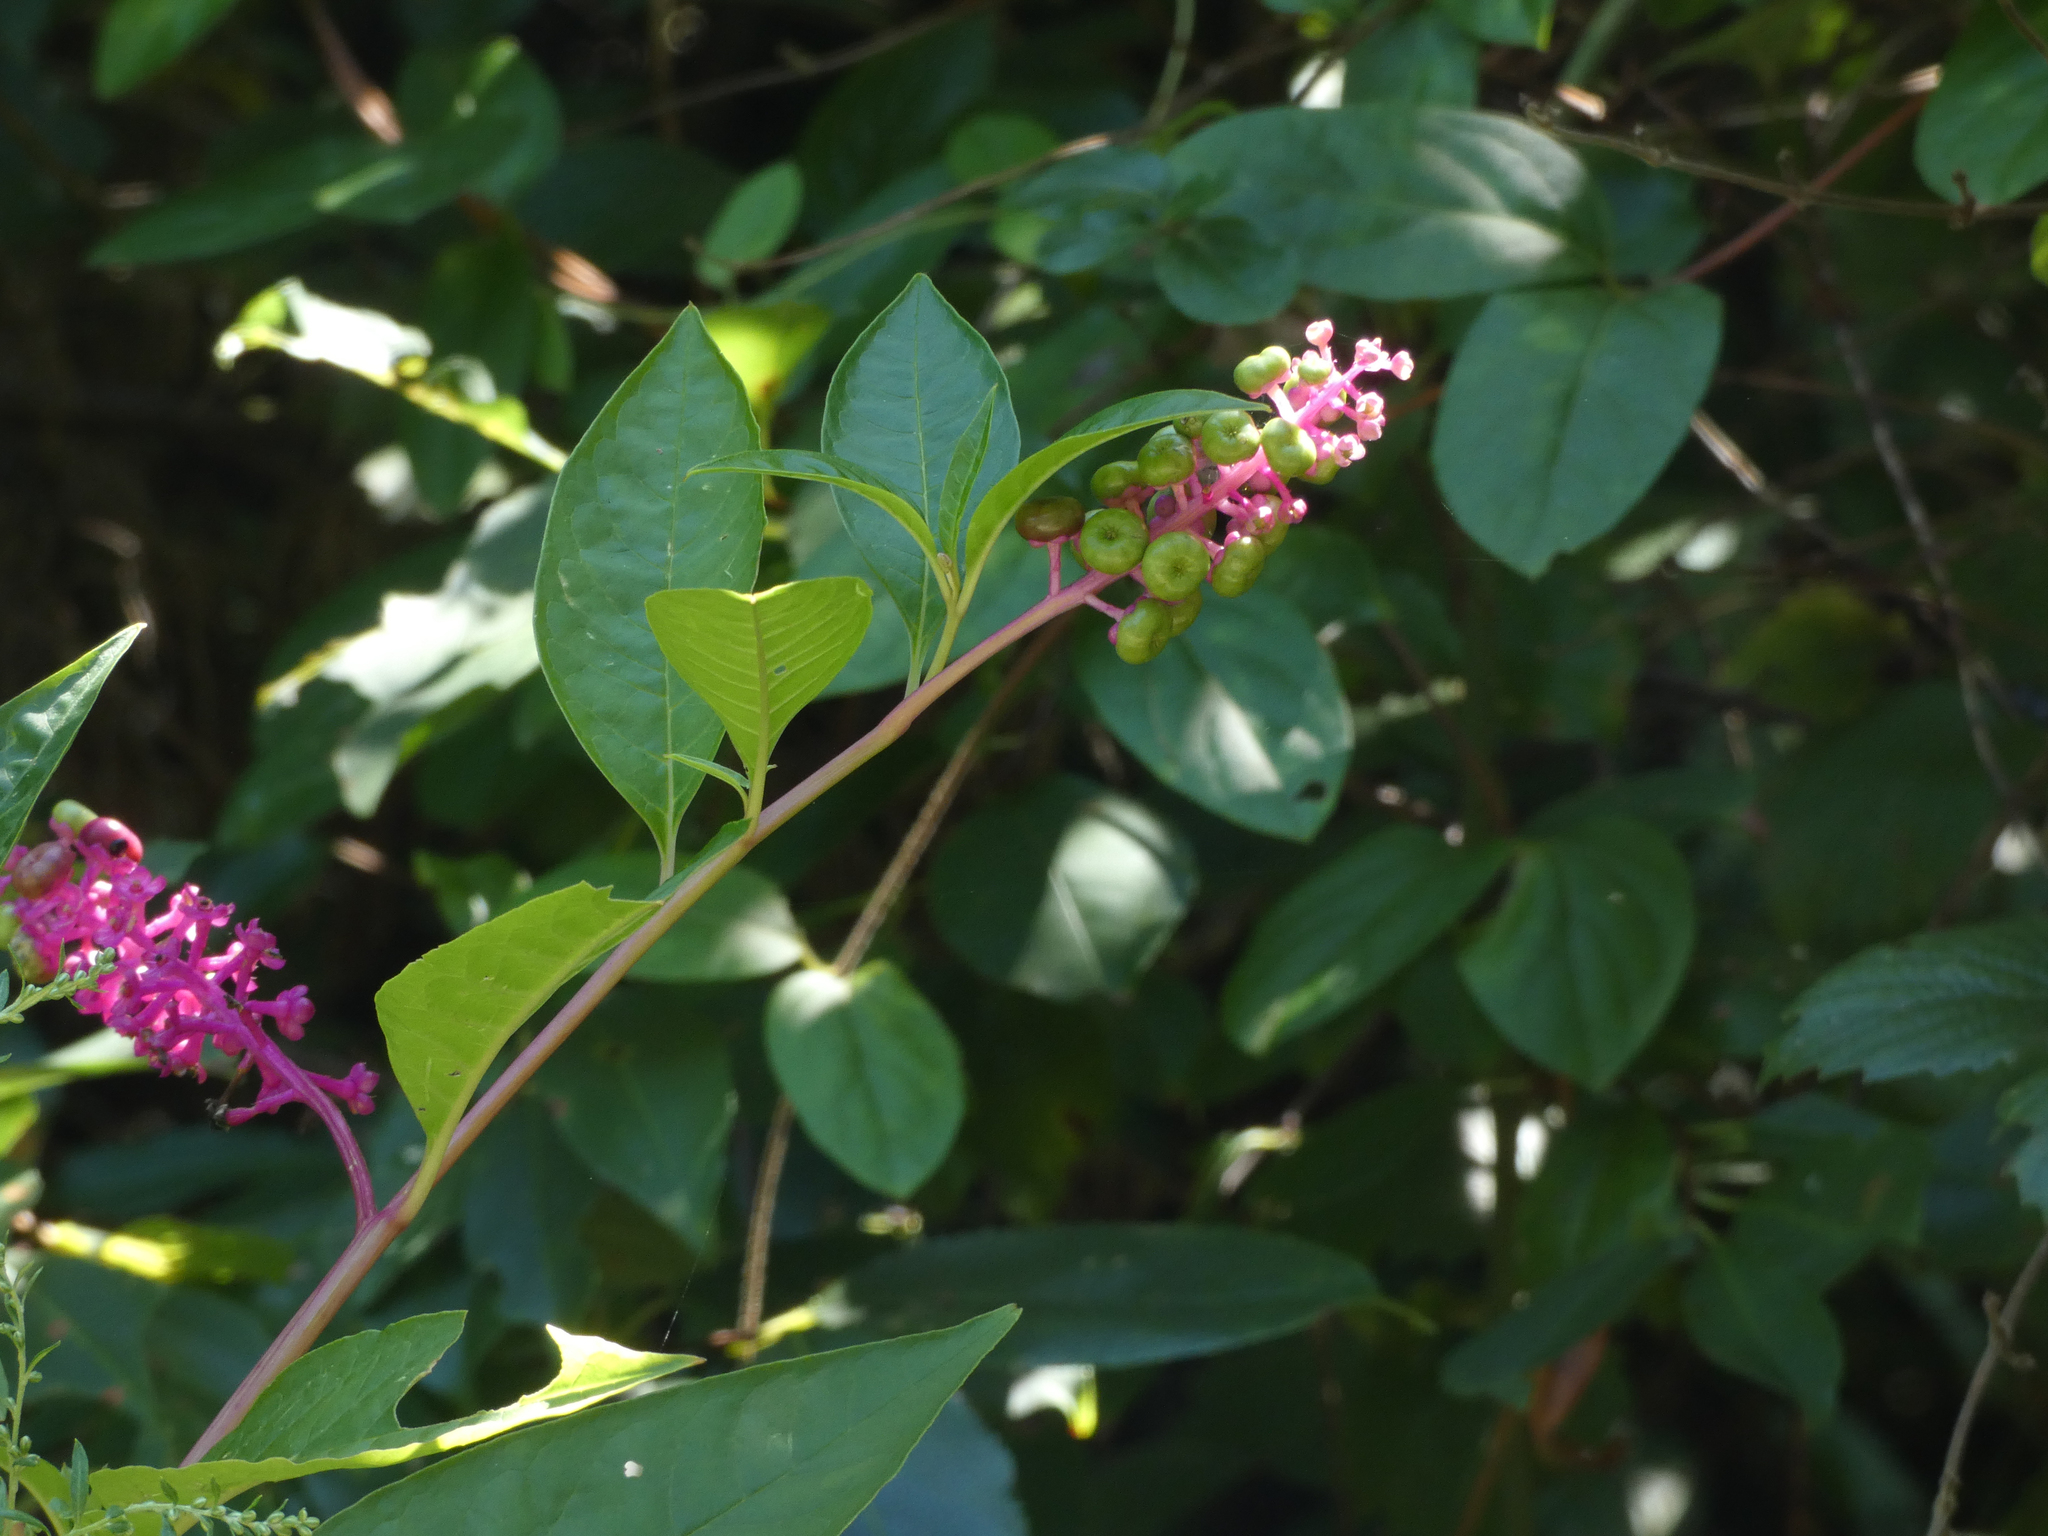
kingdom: Plantae
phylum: Tracheophyta
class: Magnoliopsida
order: Caryophyllales
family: Phytolaccaceae
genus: Phytolacca
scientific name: Phytolacca americana
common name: American pokeweed
